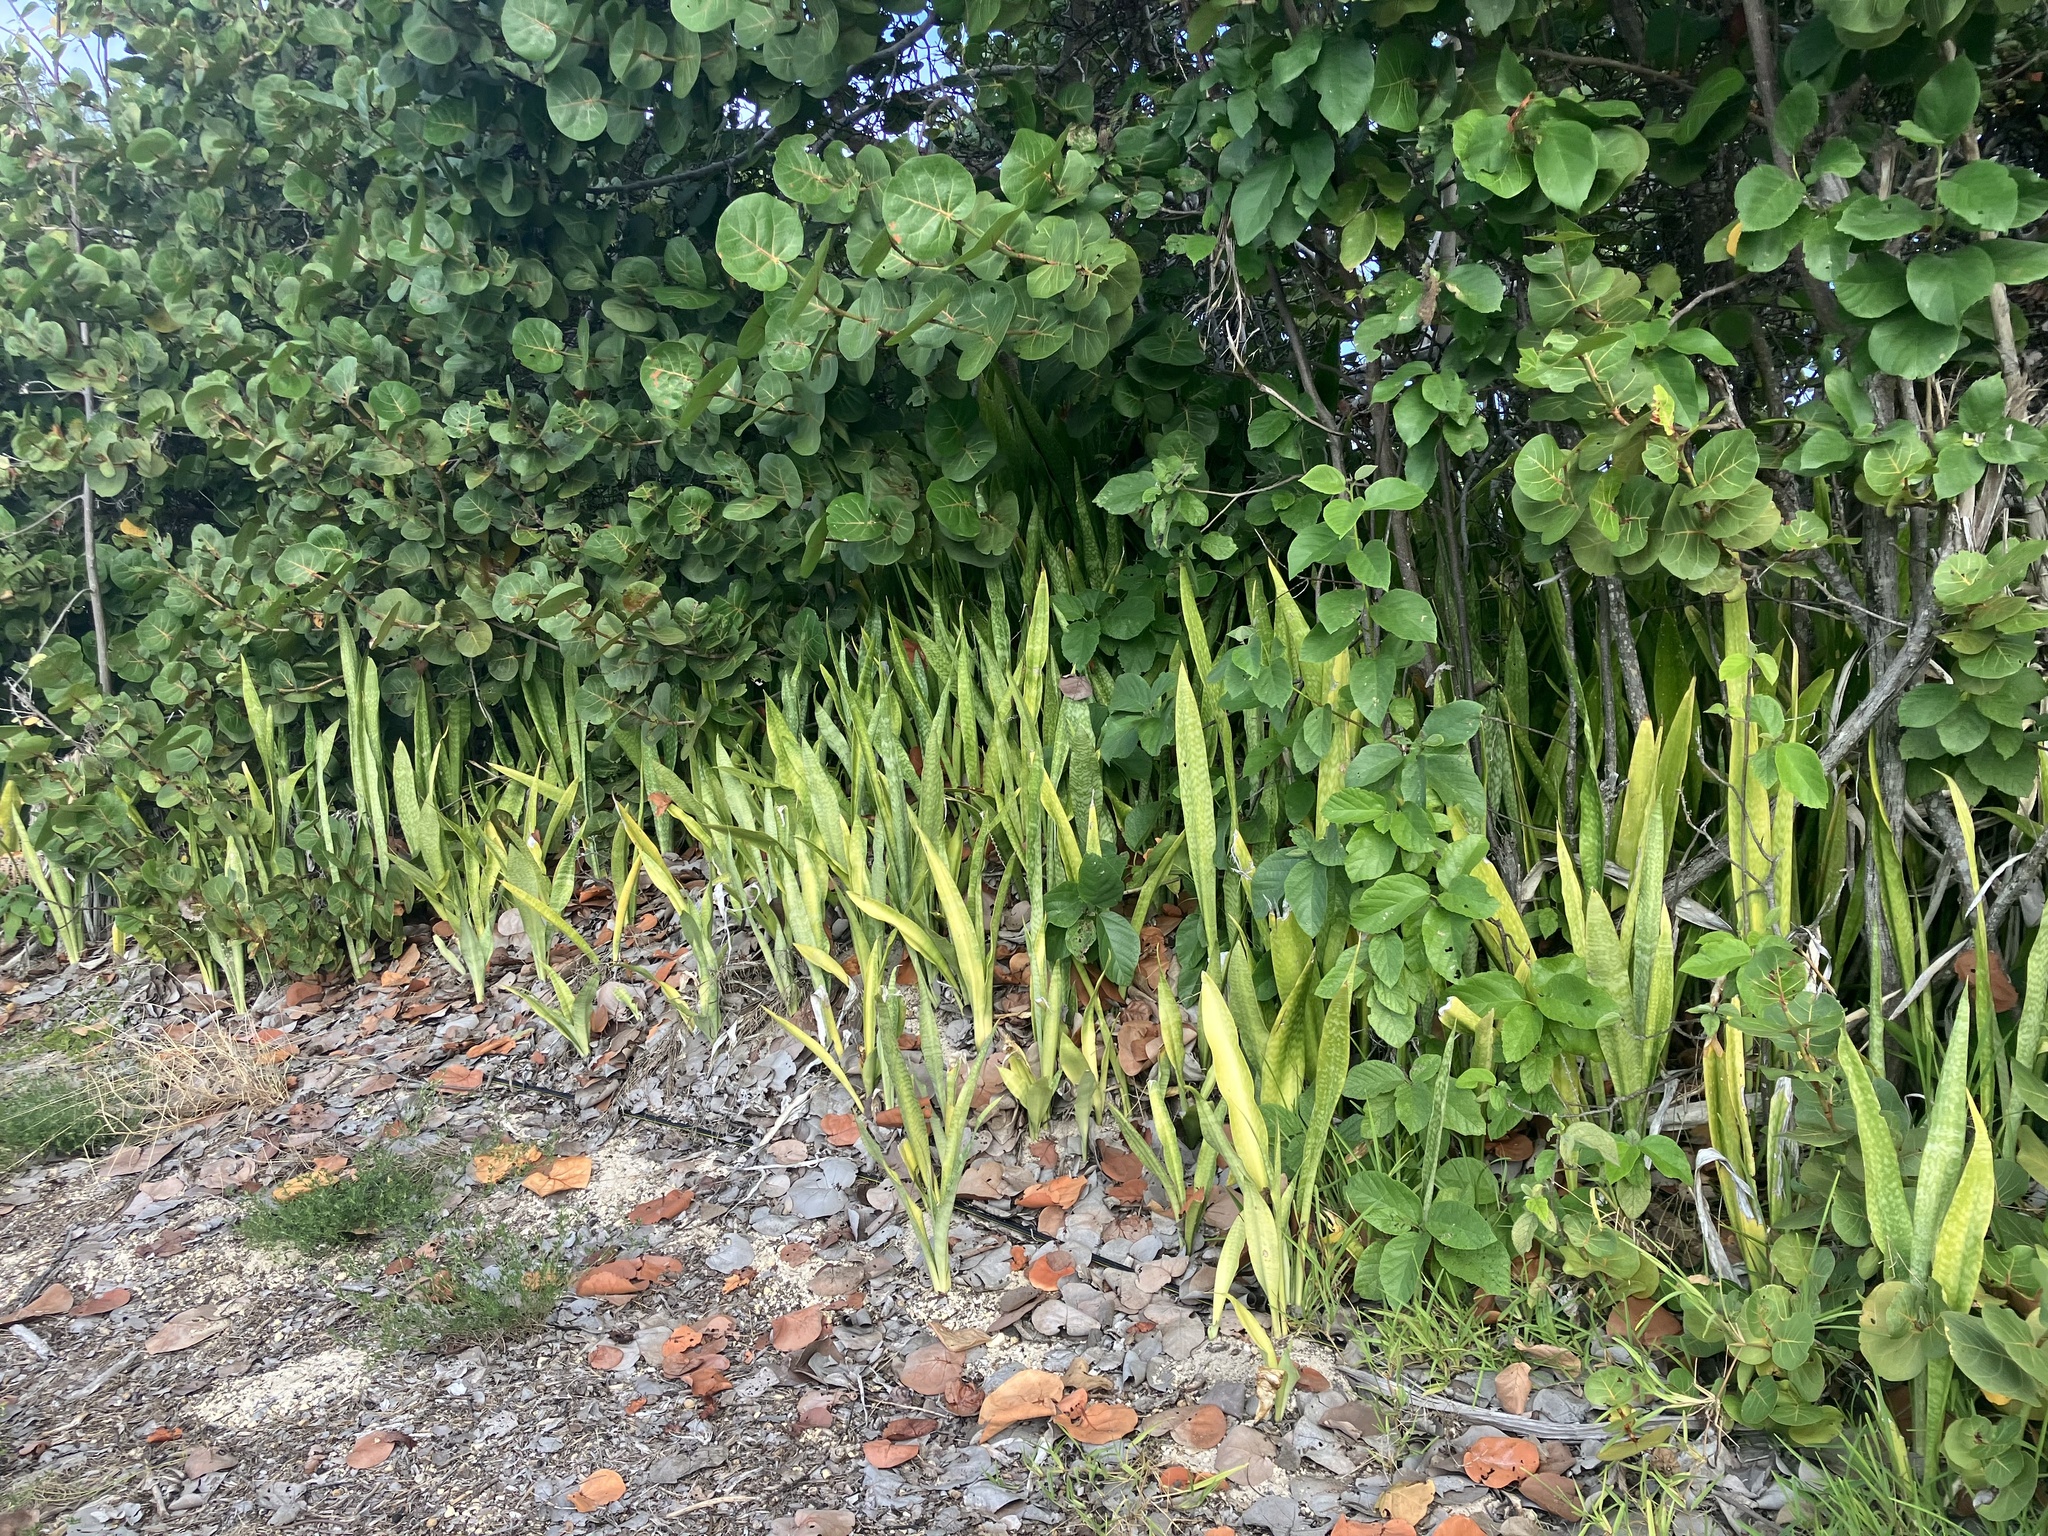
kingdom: Plantae
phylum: Tracheophyta
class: Liliopsida
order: Asparagales
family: Asparagaceae
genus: Dracaena
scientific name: Dracaena hyacinthoides
